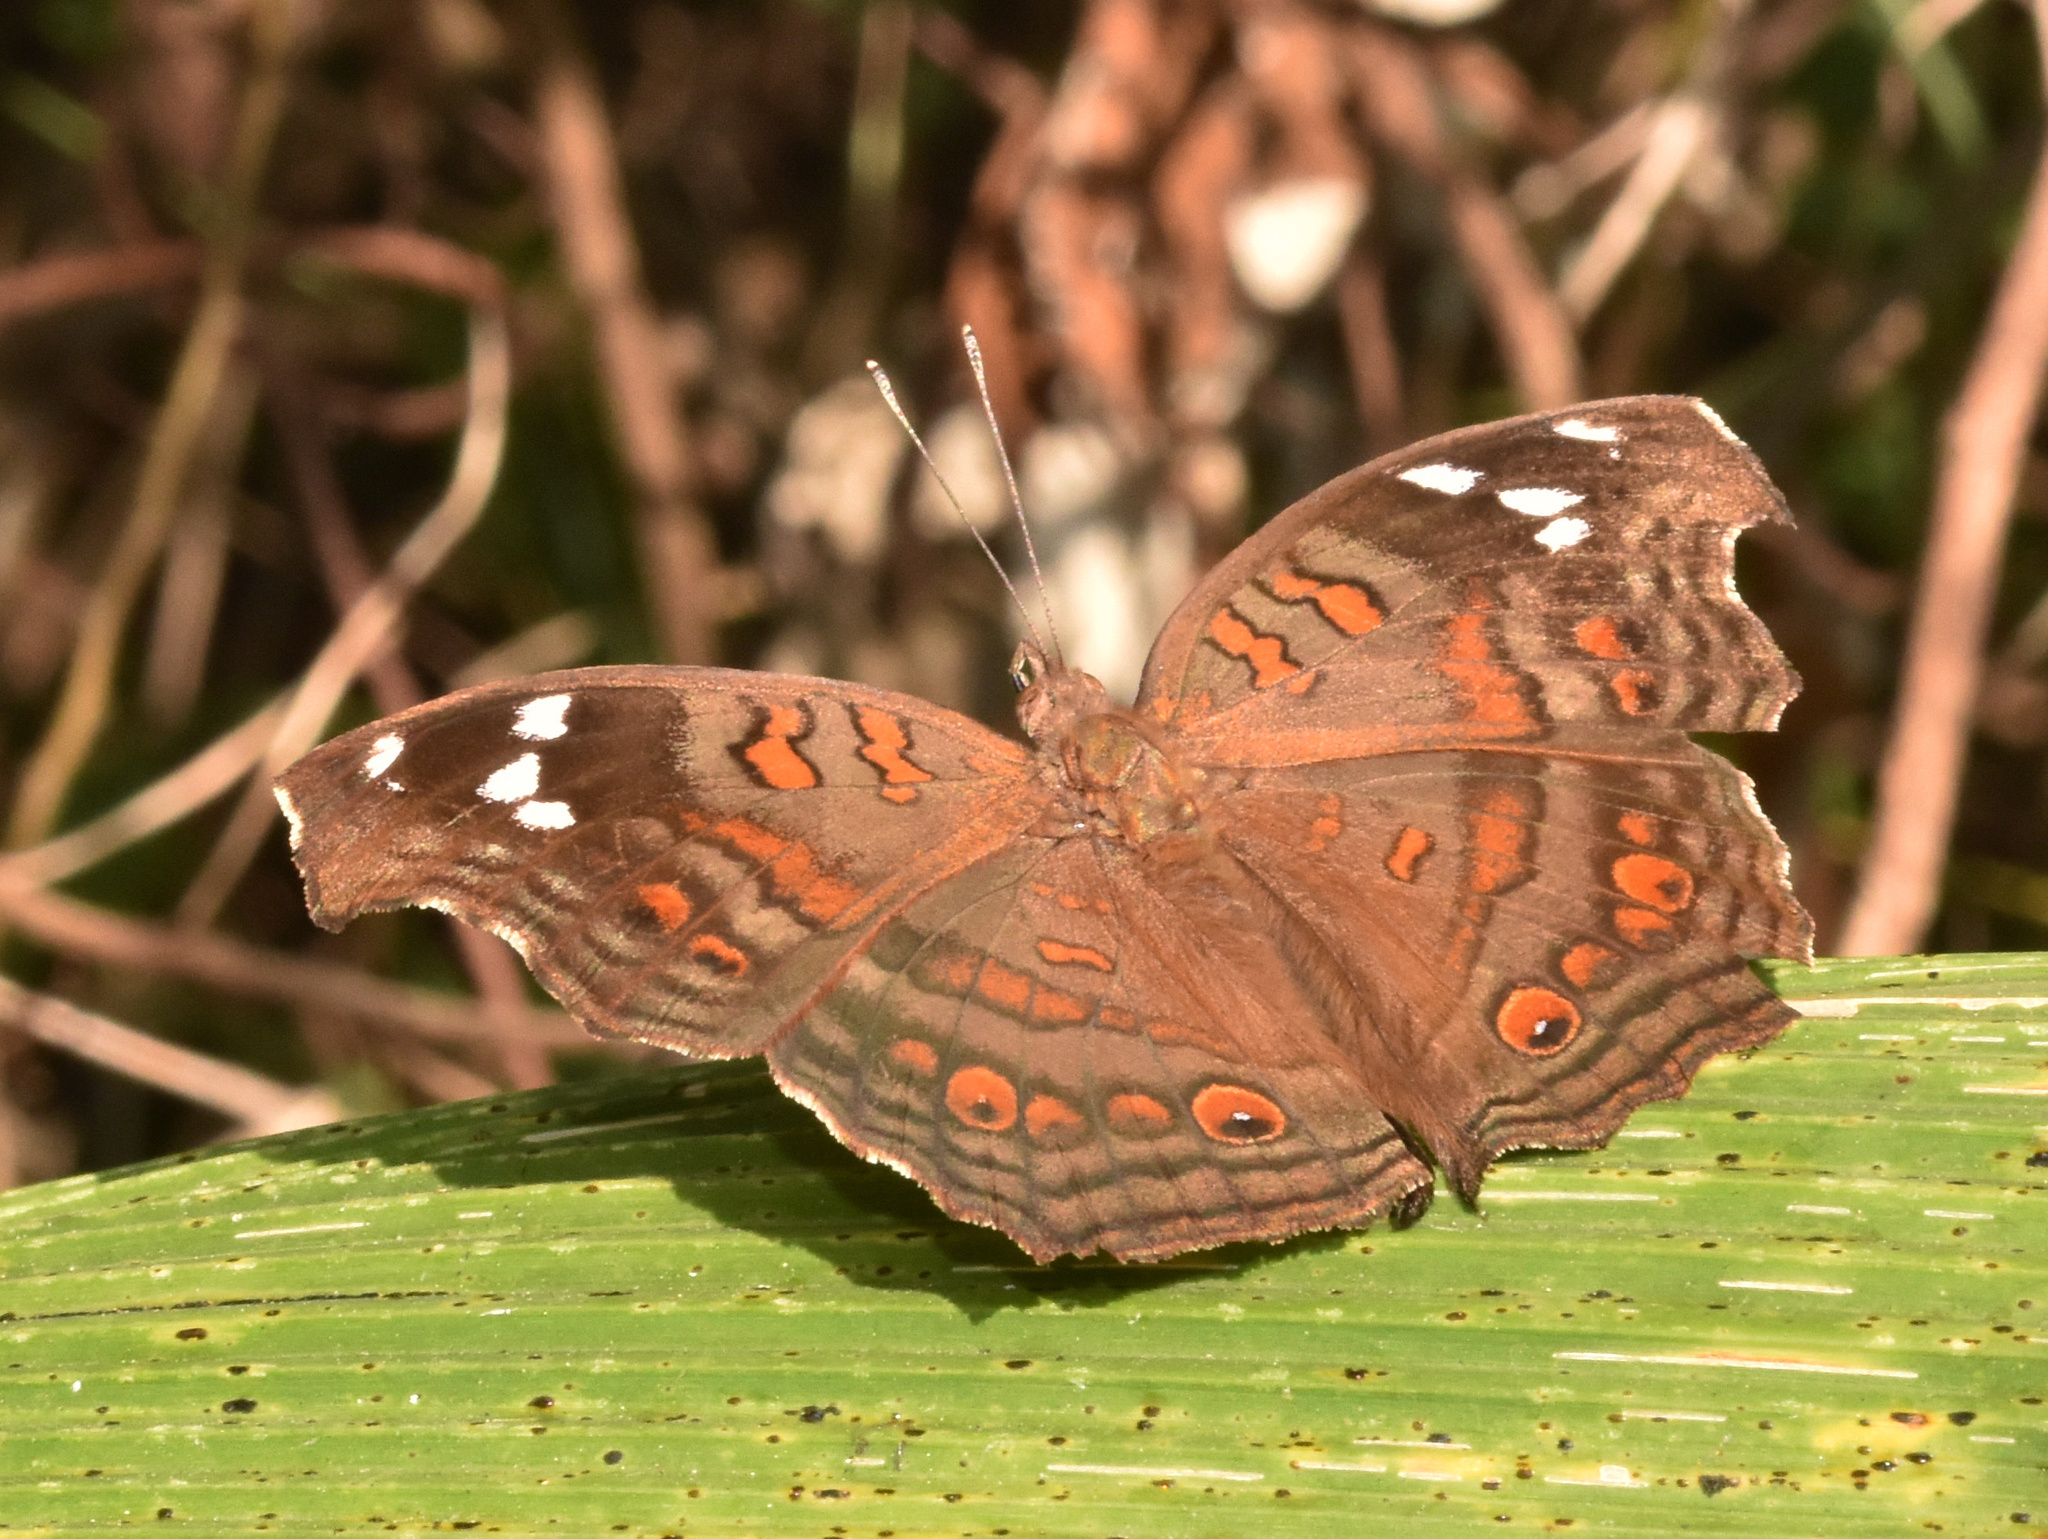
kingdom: Animalia
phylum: Arthropoda
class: Insecta
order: Lepidoptera
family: Nymphalidae
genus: Junonia
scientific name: Junonia natalica
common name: Brown pansy
